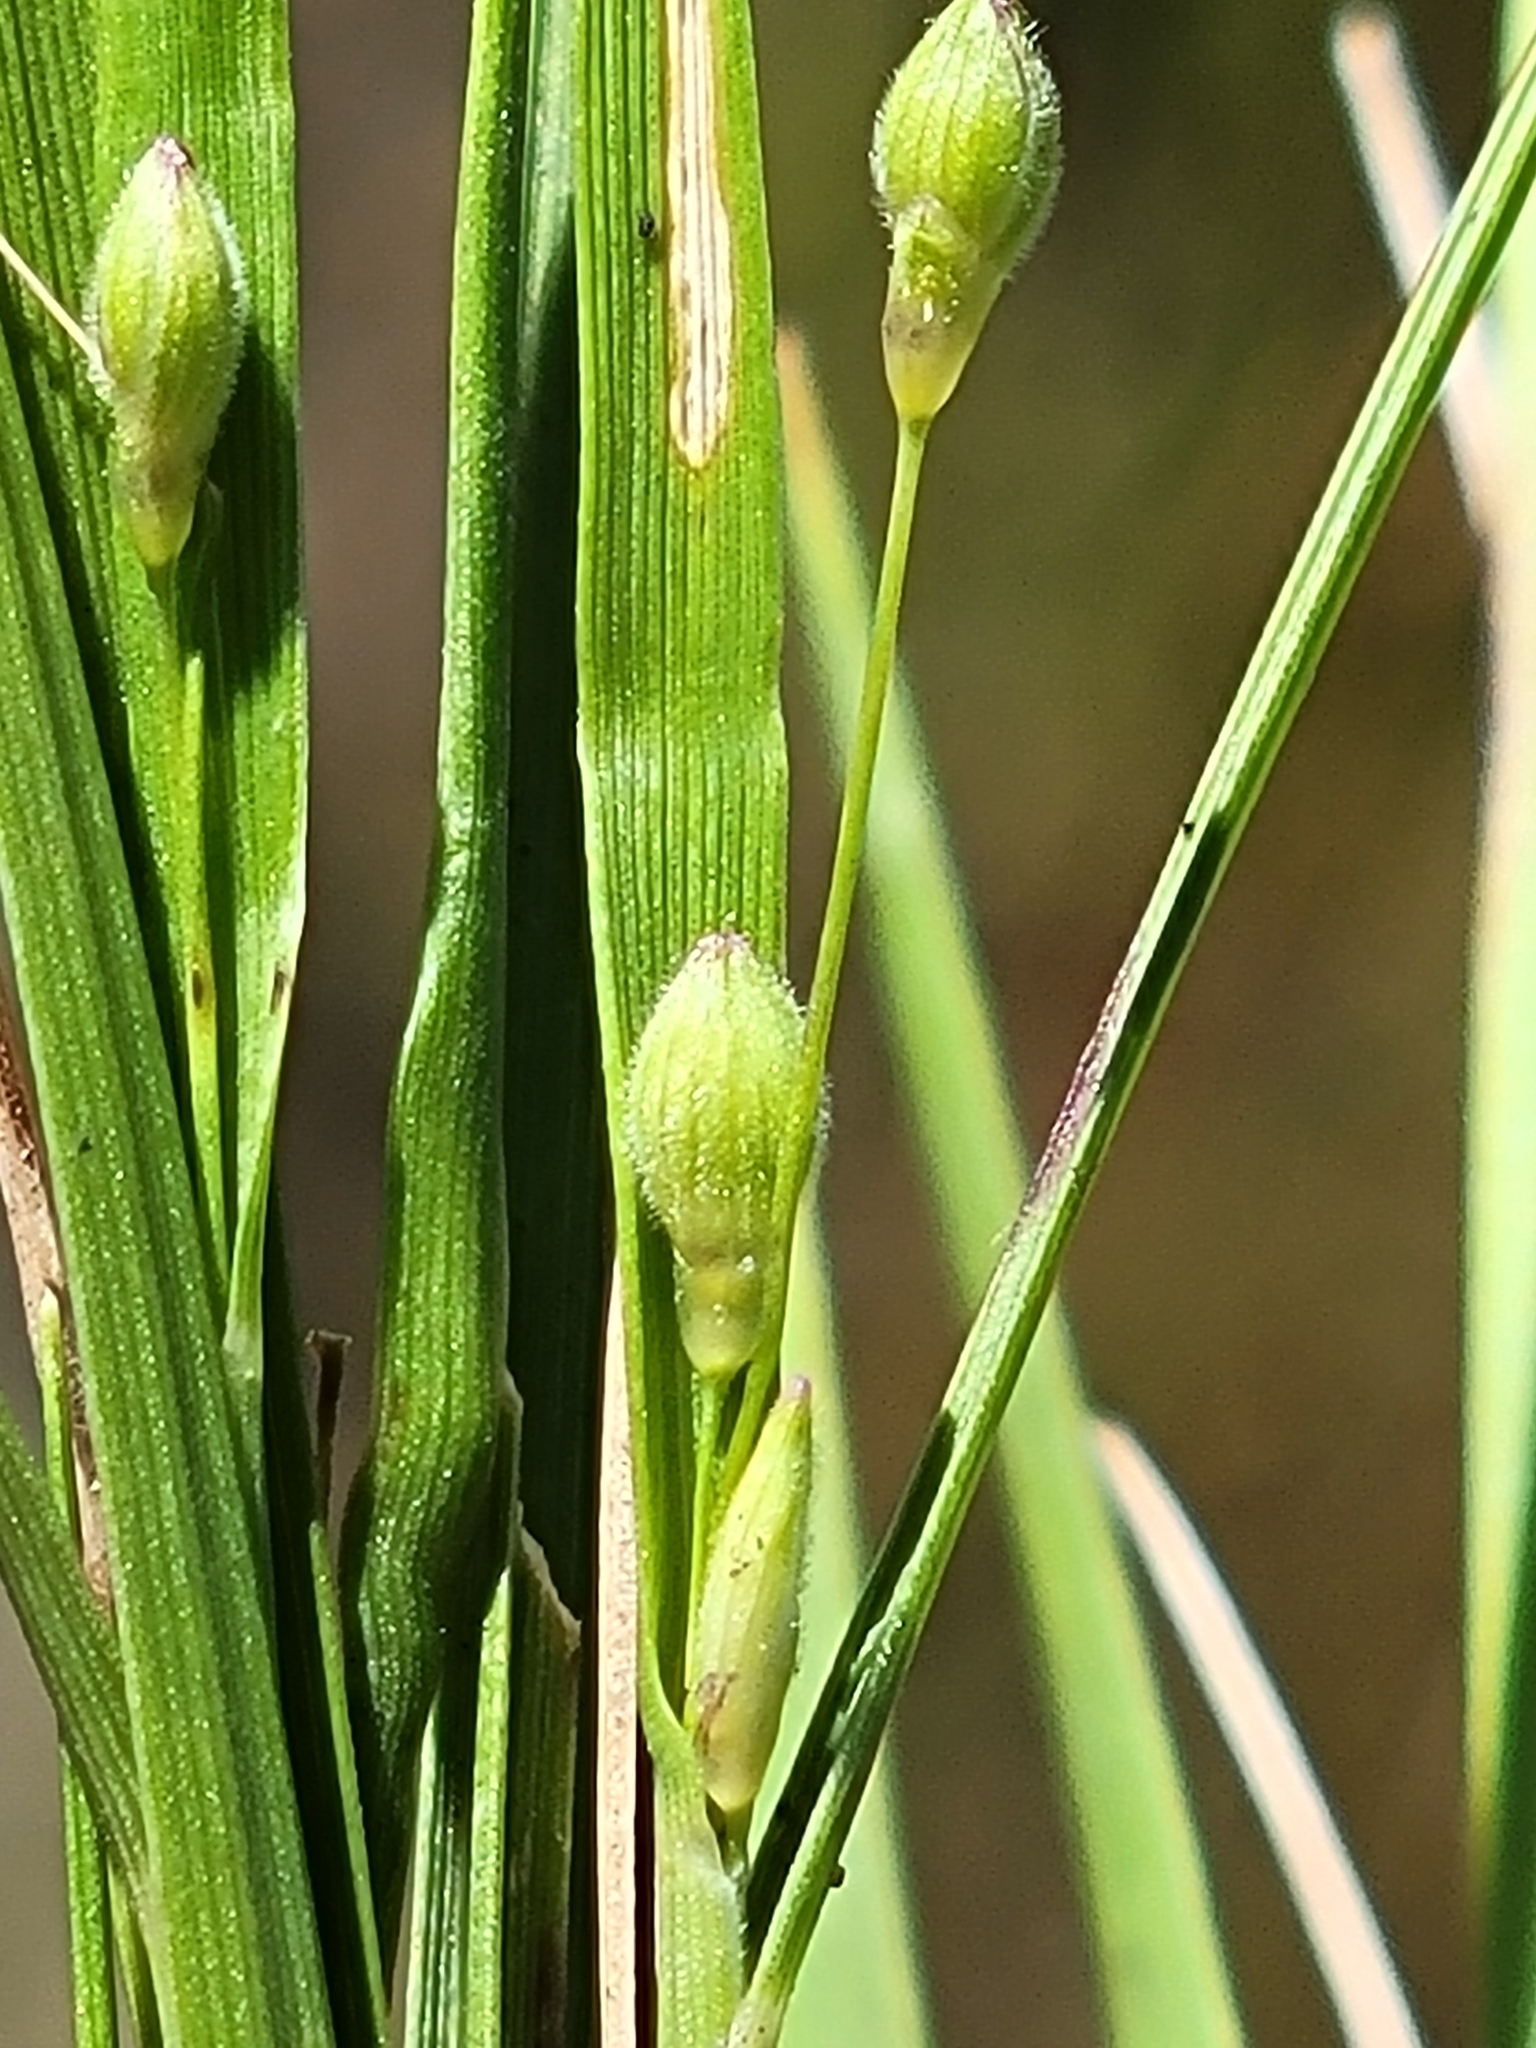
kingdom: Plantae
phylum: Tracheophyta
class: Liliopsida
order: Poales
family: Poaceae
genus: Dichanthelium
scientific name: Dichanthelium arenicoloides
